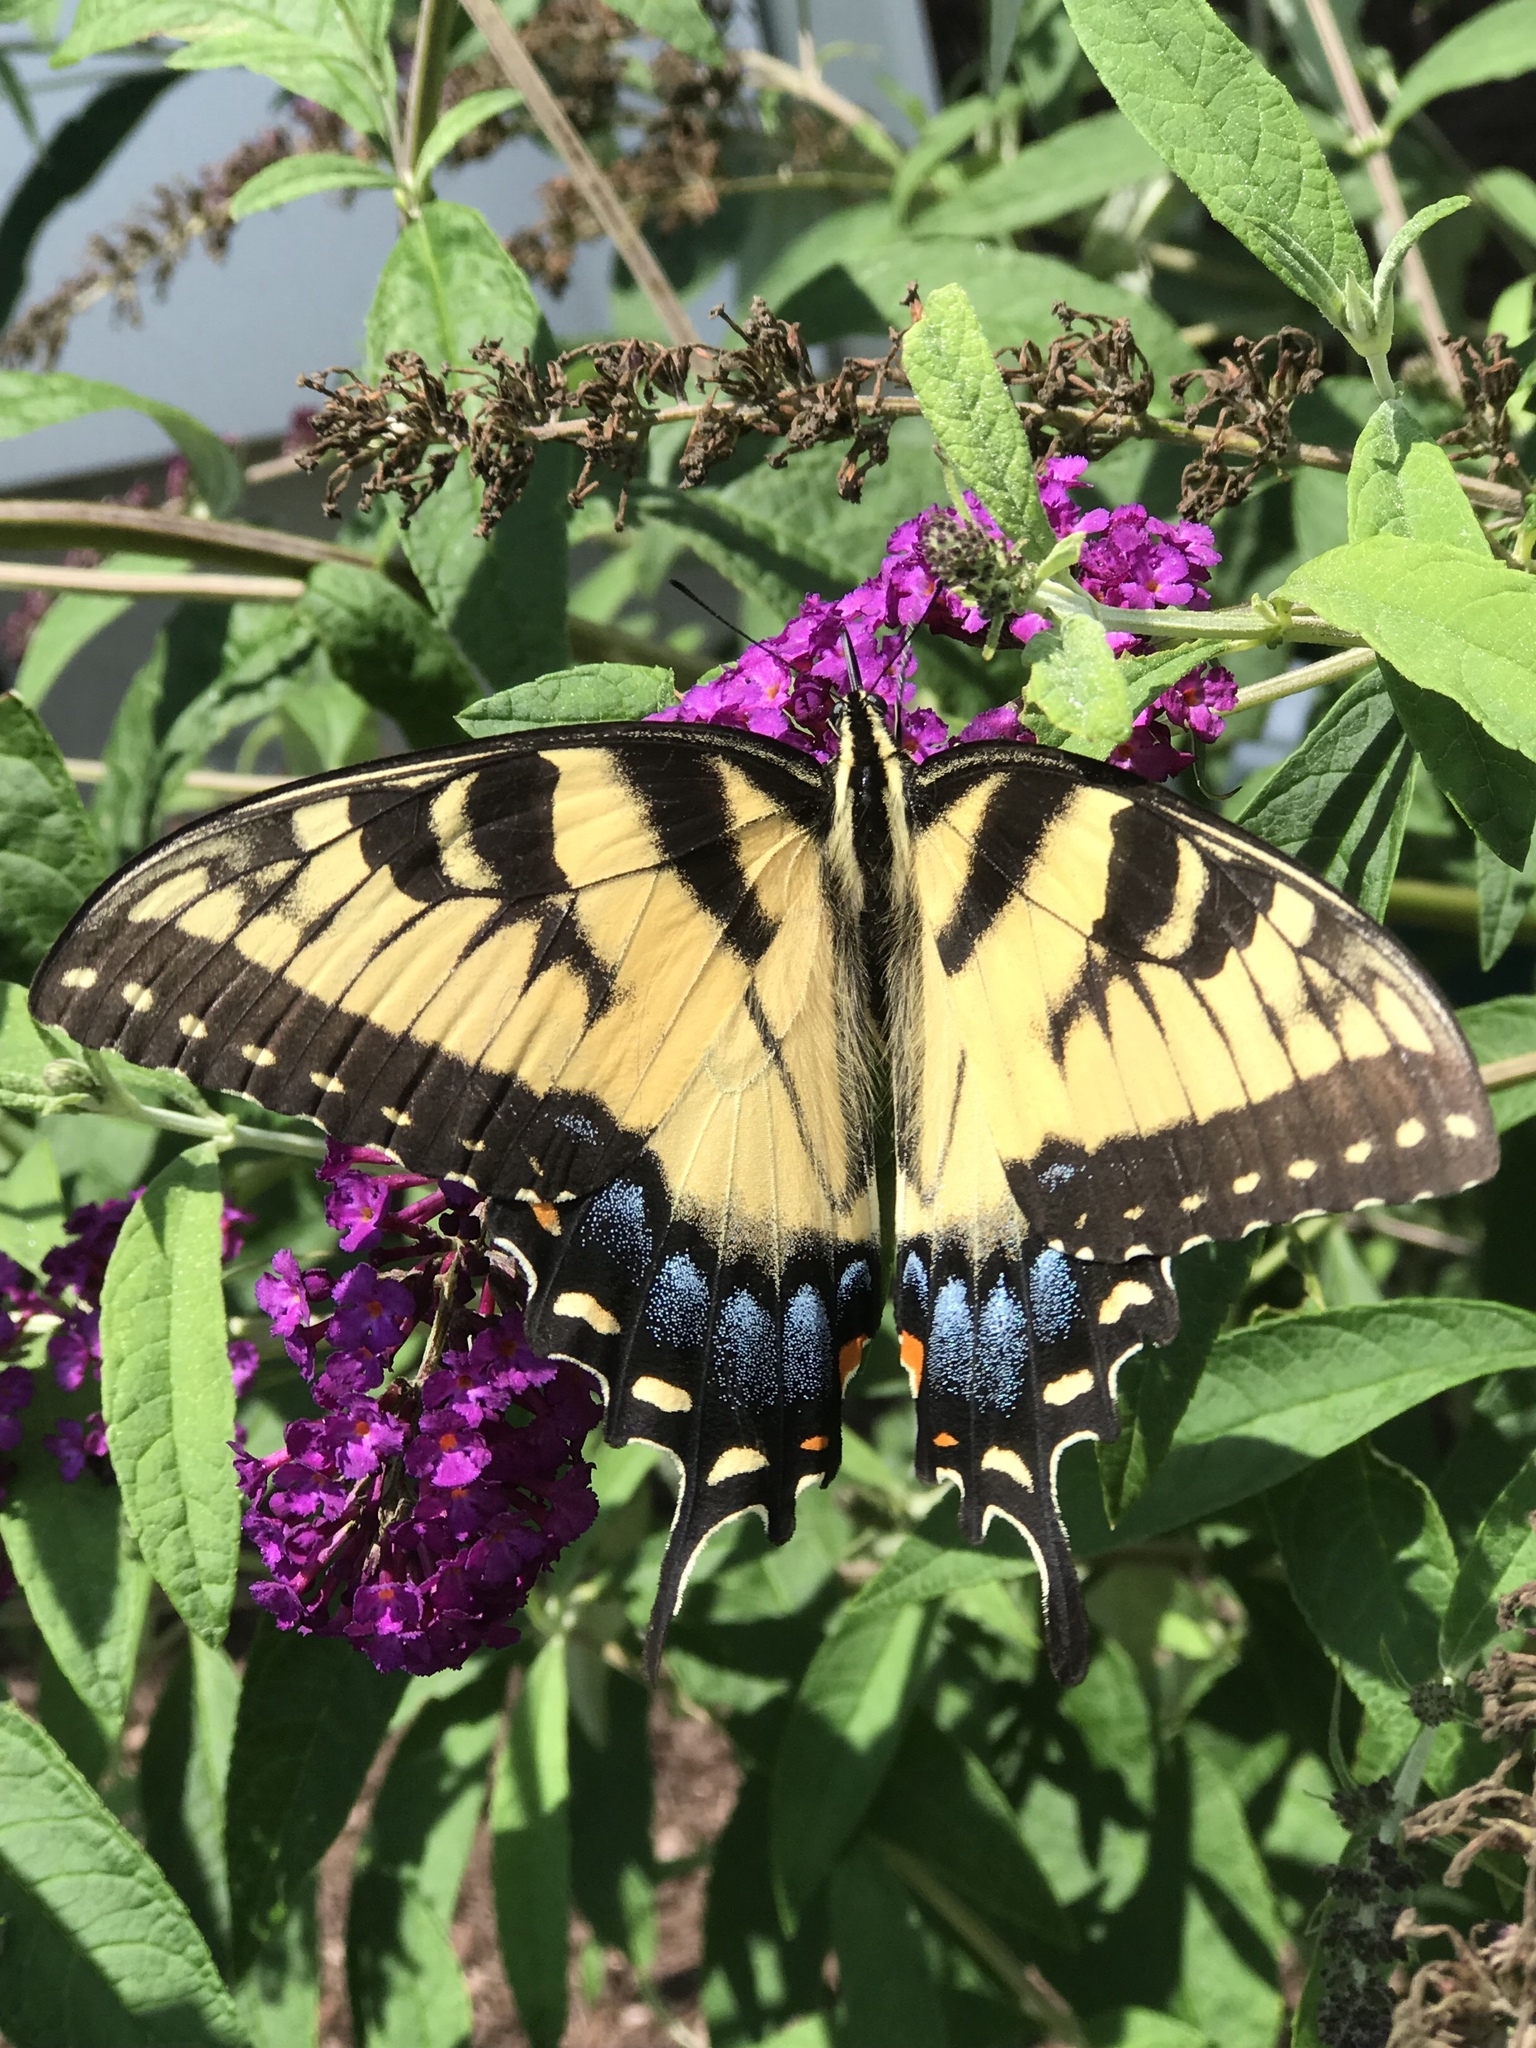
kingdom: Animalia
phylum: Arthropoda
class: Insecta
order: Lepidoptera
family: Papilionidae
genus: Papilio
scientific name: Papilio glaucus
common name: Tiger swallowtail
